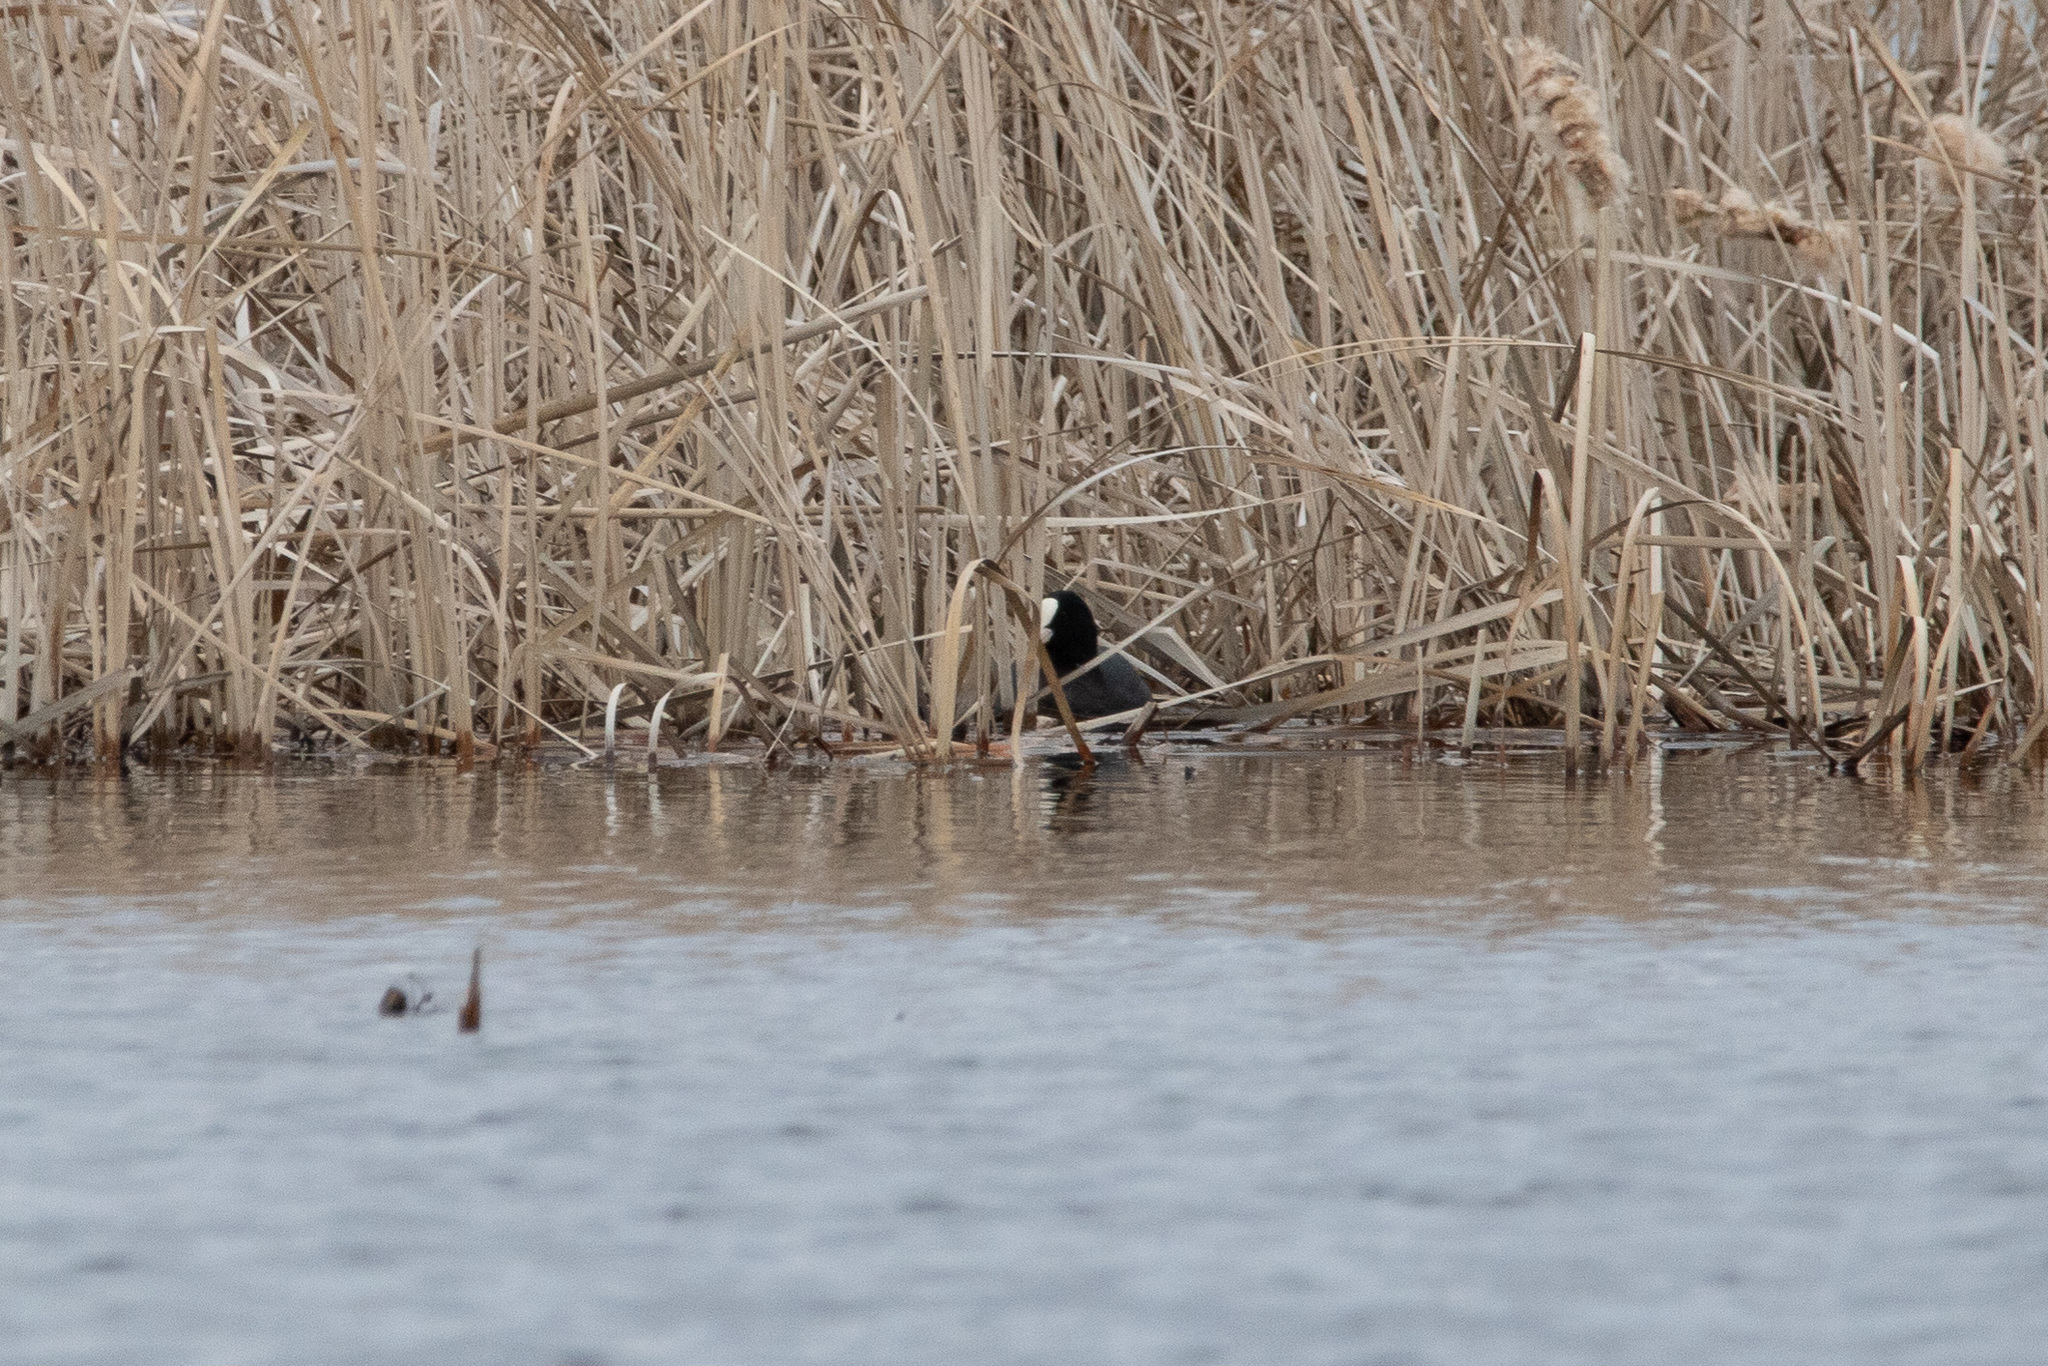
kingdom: Animalia
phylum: Chordata
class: Aves
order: Gruiformes
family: Rallidae
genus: Fulica
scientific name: Fulica atra
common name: Eurasian coot
